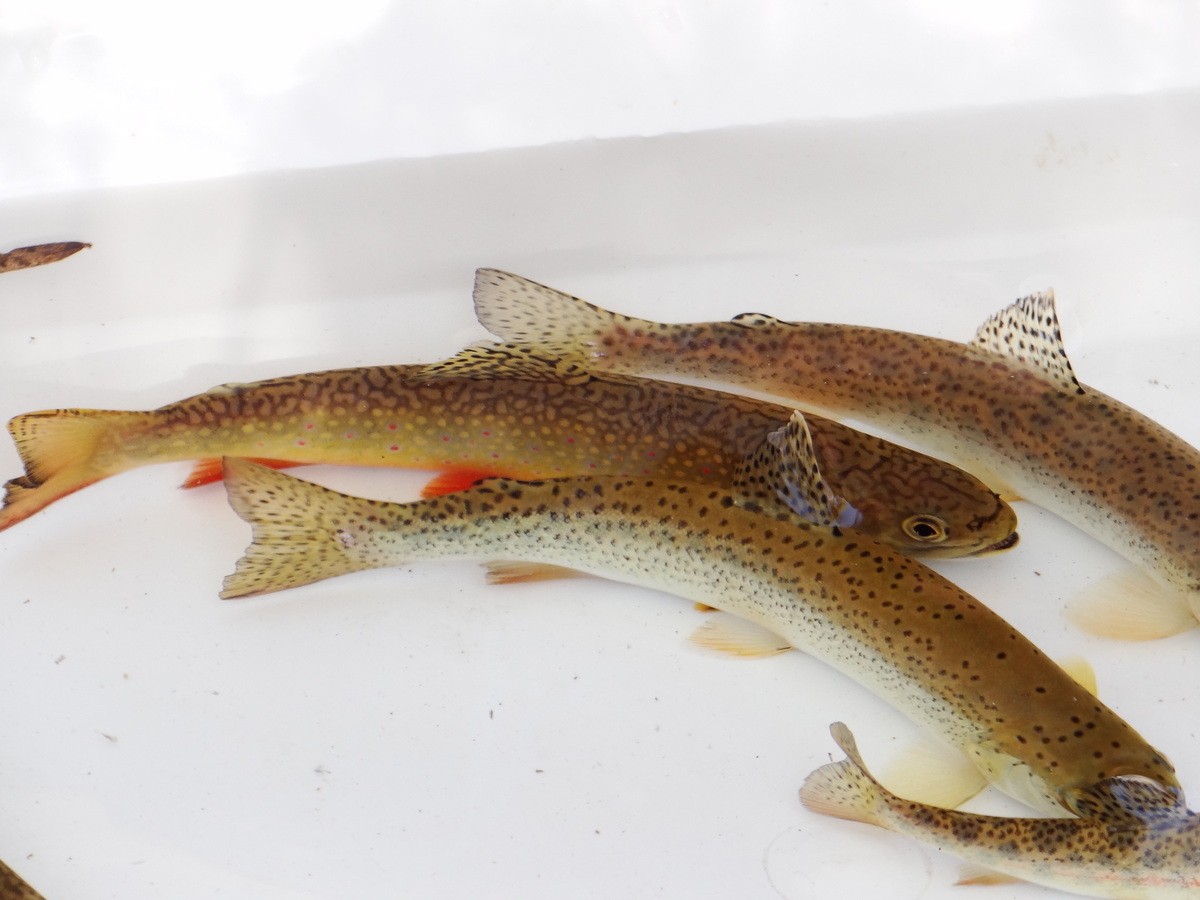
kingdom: Animalia
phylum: Chordata
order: Salmoniformes
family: Salmonidae
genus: Oncorhynchus
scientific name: Oncorhynchus mykiss
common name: Rainbow trout
